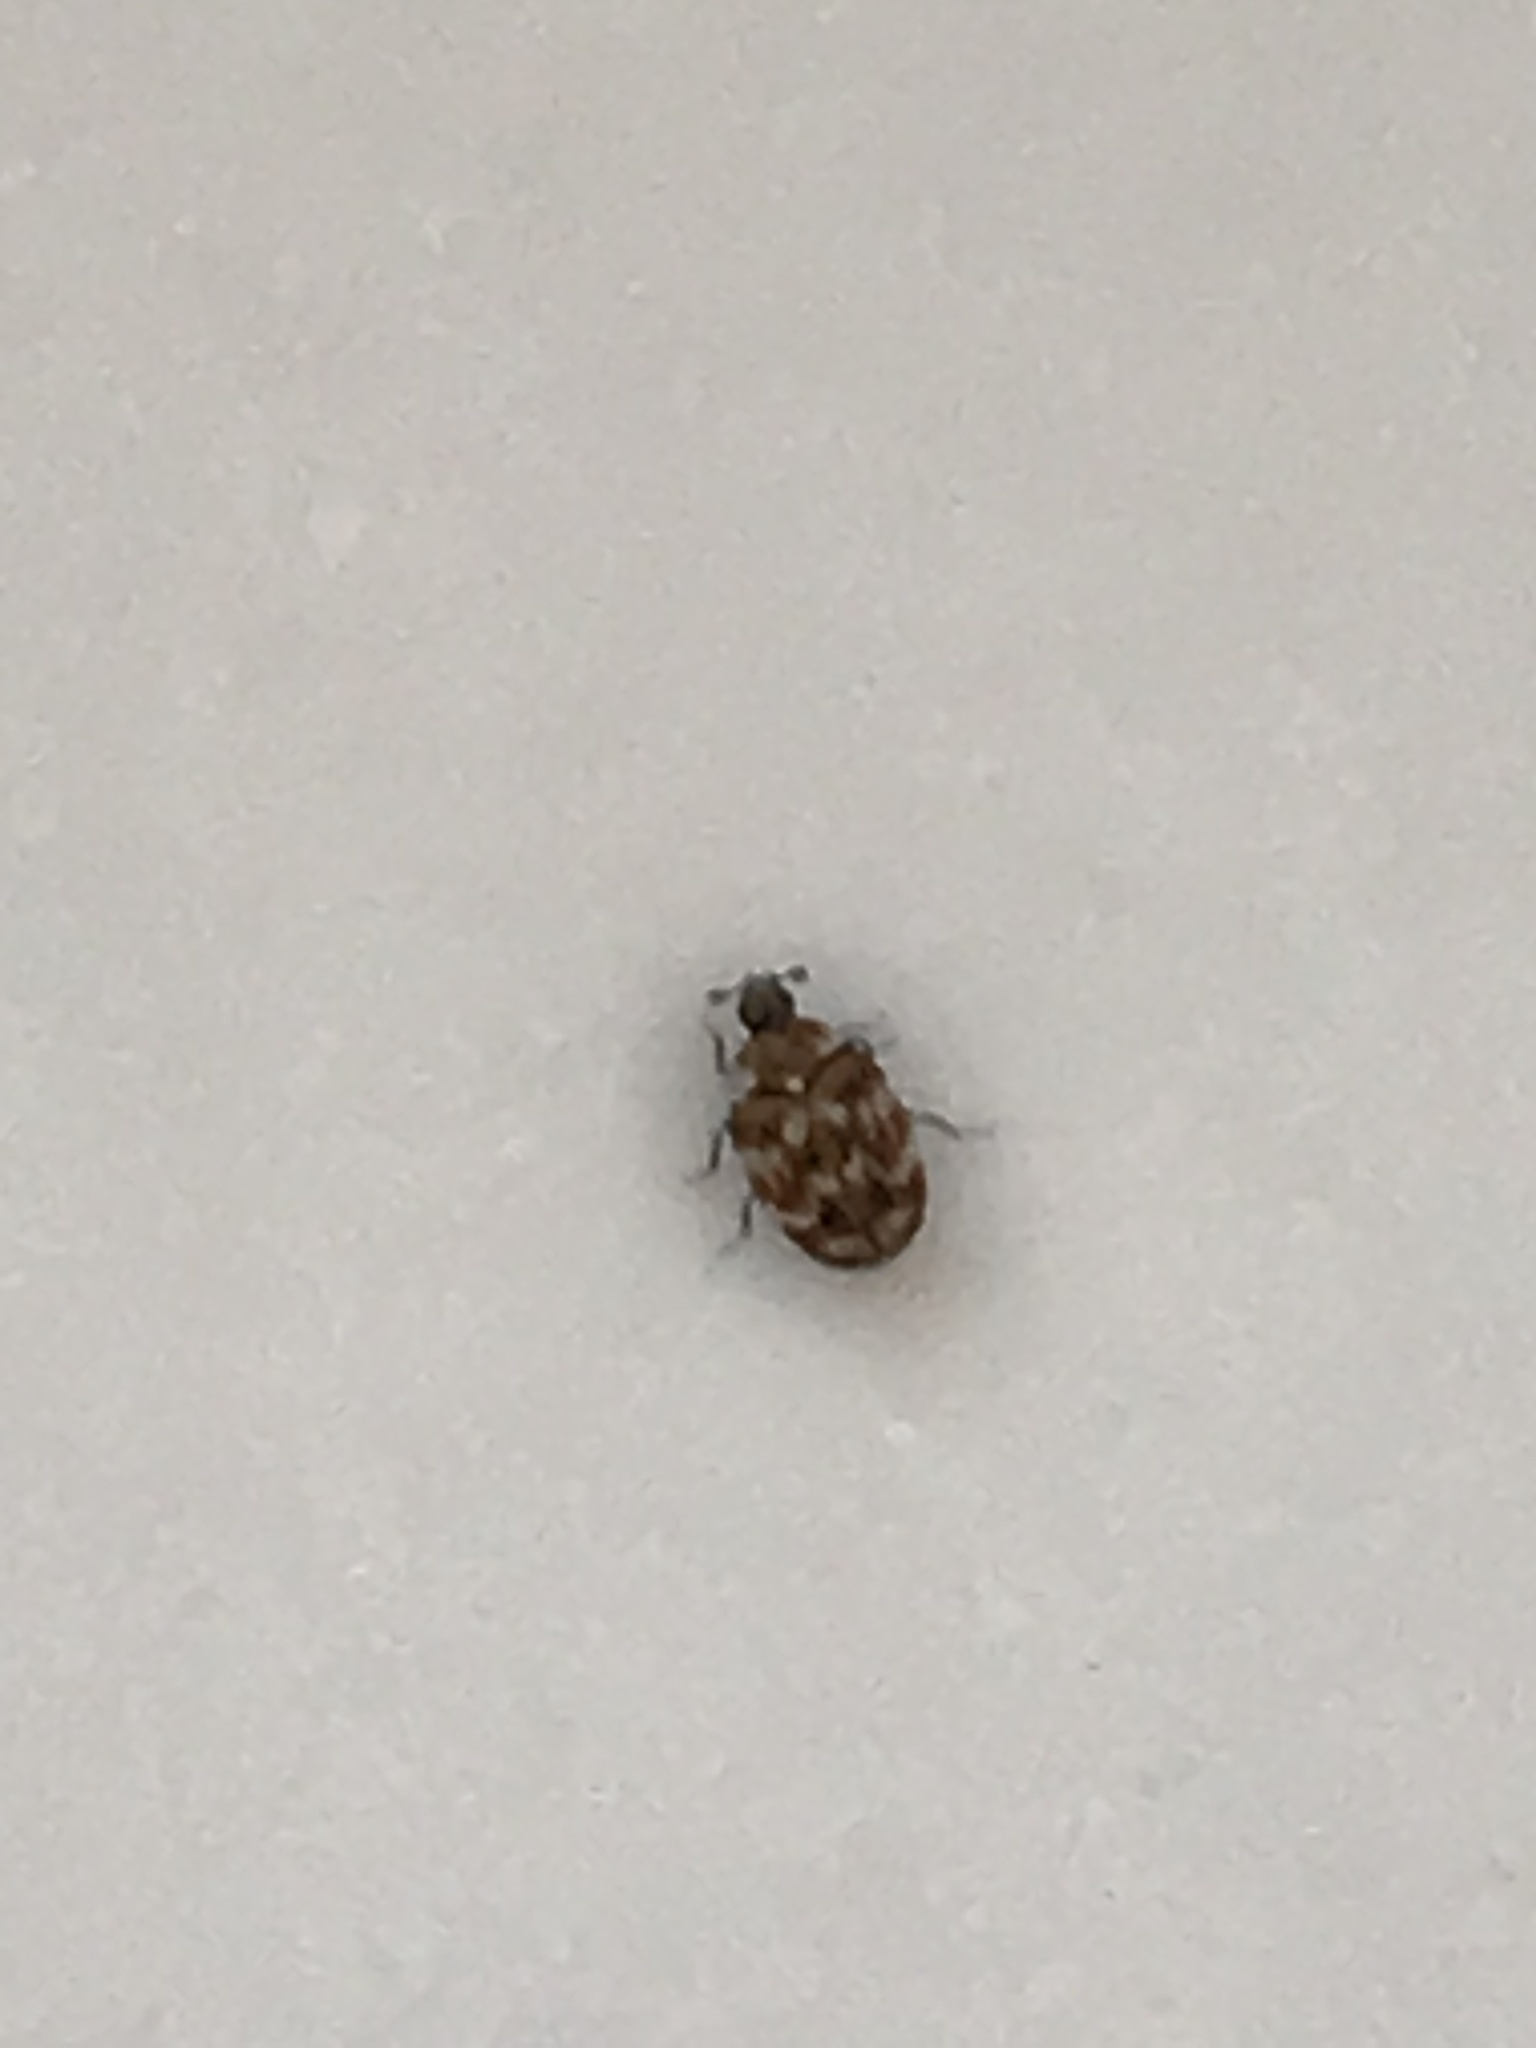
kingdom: Animalia
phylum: Arthropoda
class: Insecta
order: Coleoptera
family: Dermestidae
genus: Anthrenus
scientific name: Anthrenus verbasci
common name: Varied carpet beetle
